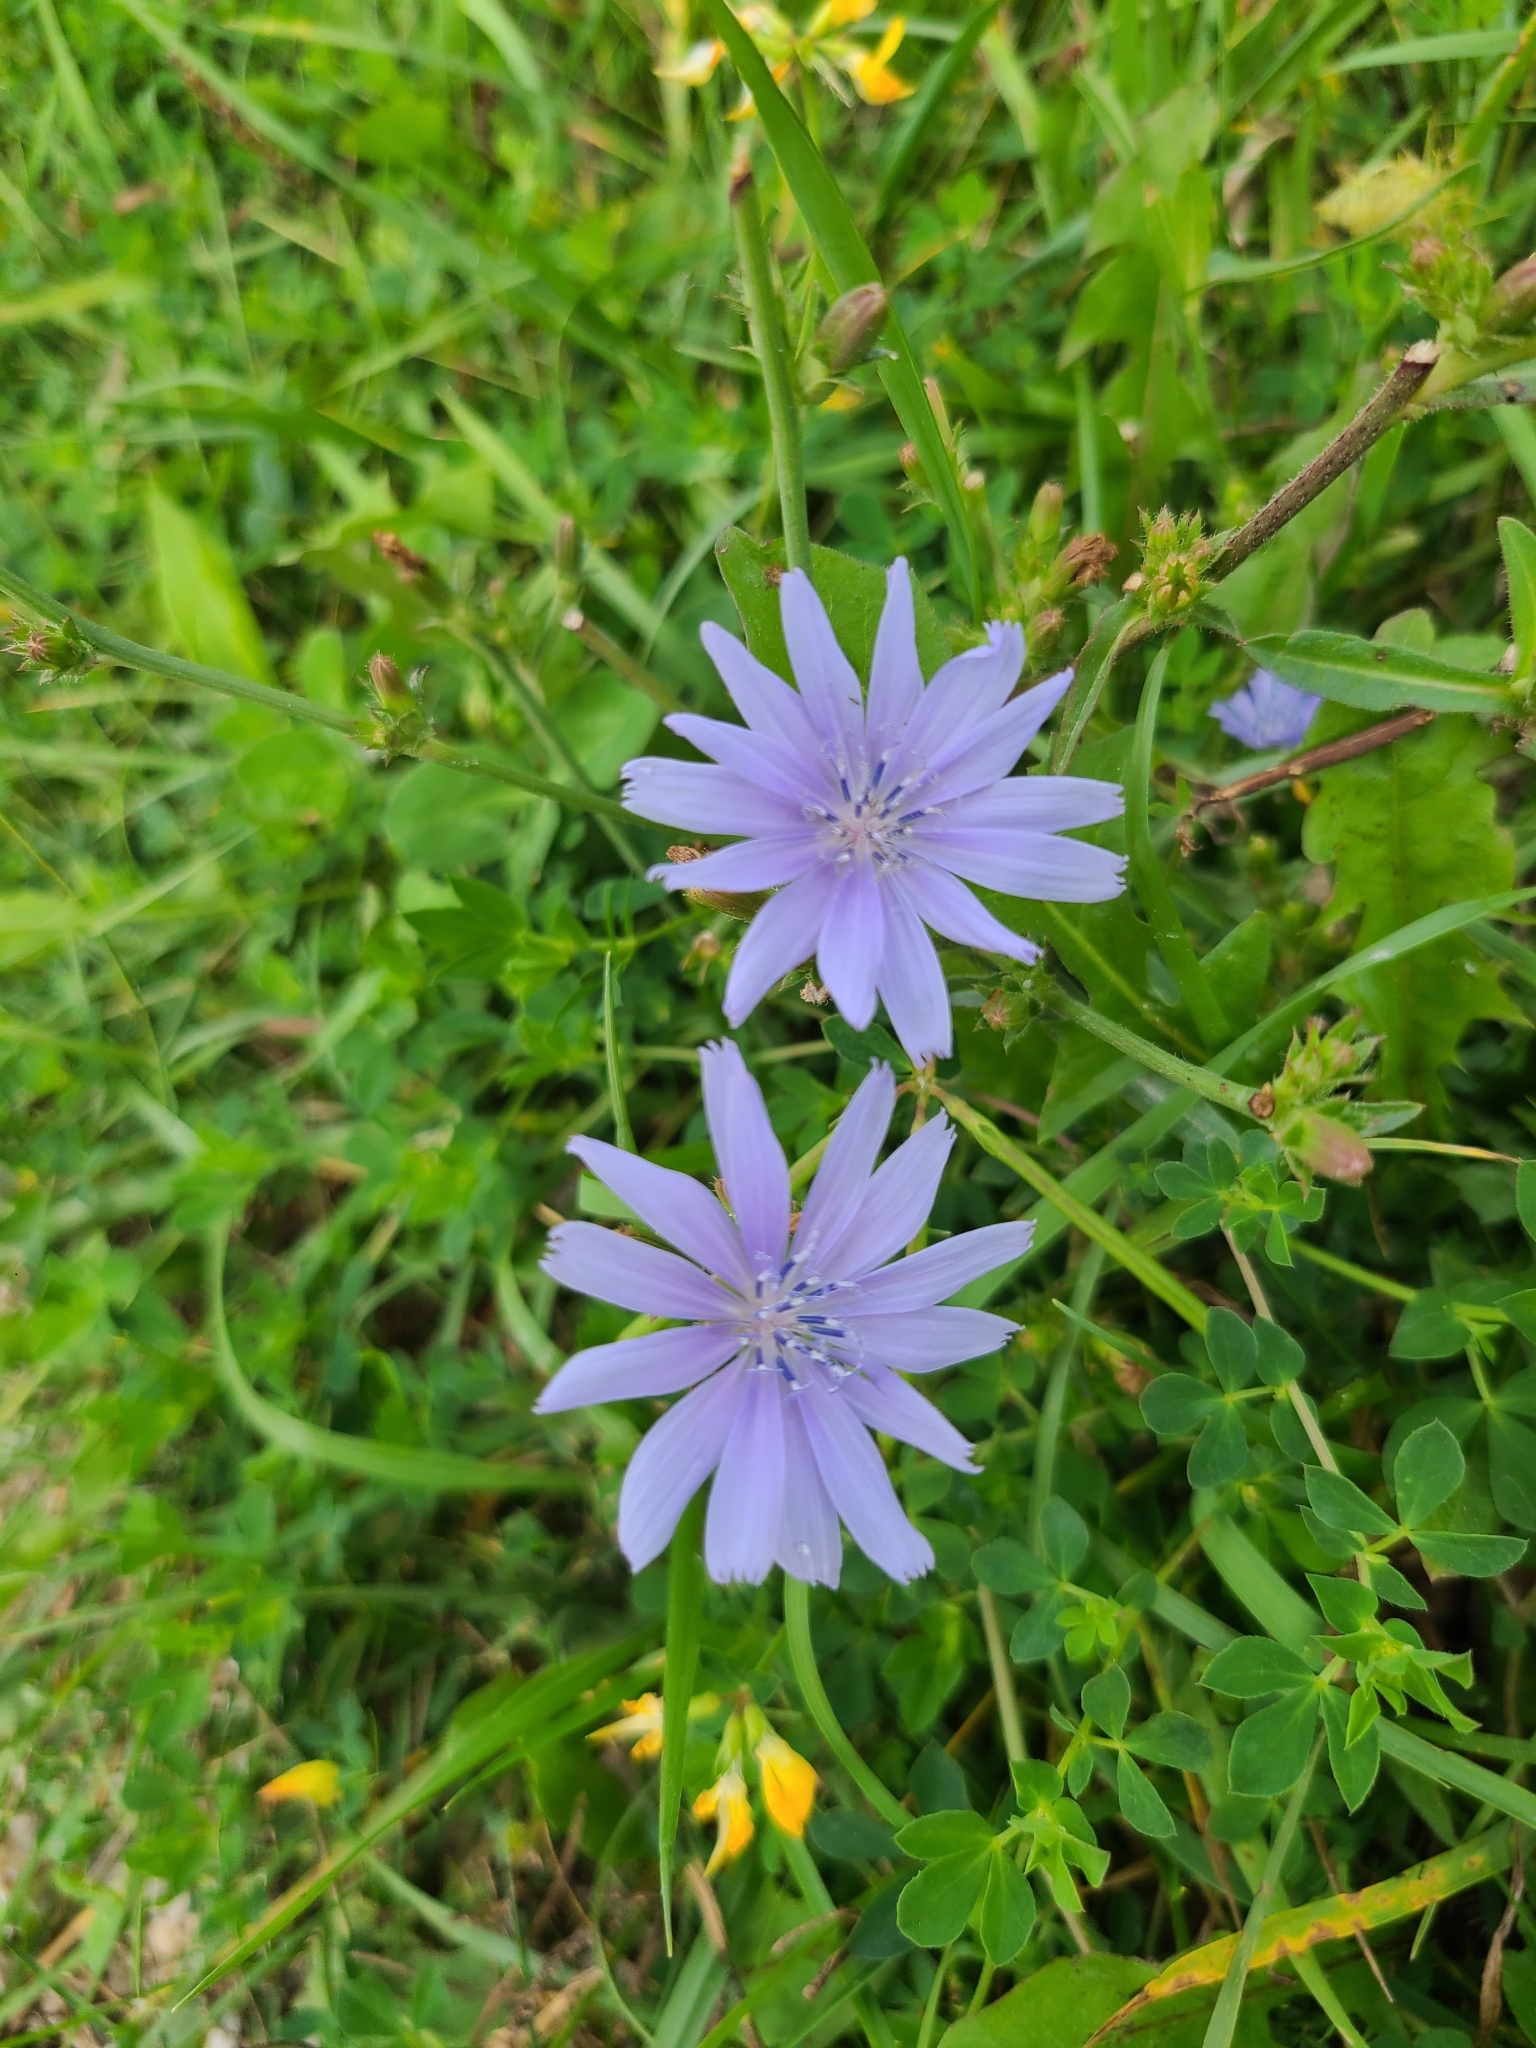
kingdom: Plantae
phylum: Tracheophyta
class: Magnoliopsida
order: Asterales
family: Asteraceae
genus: Cichorium
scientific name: Cichorium intybus
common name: Chicory
